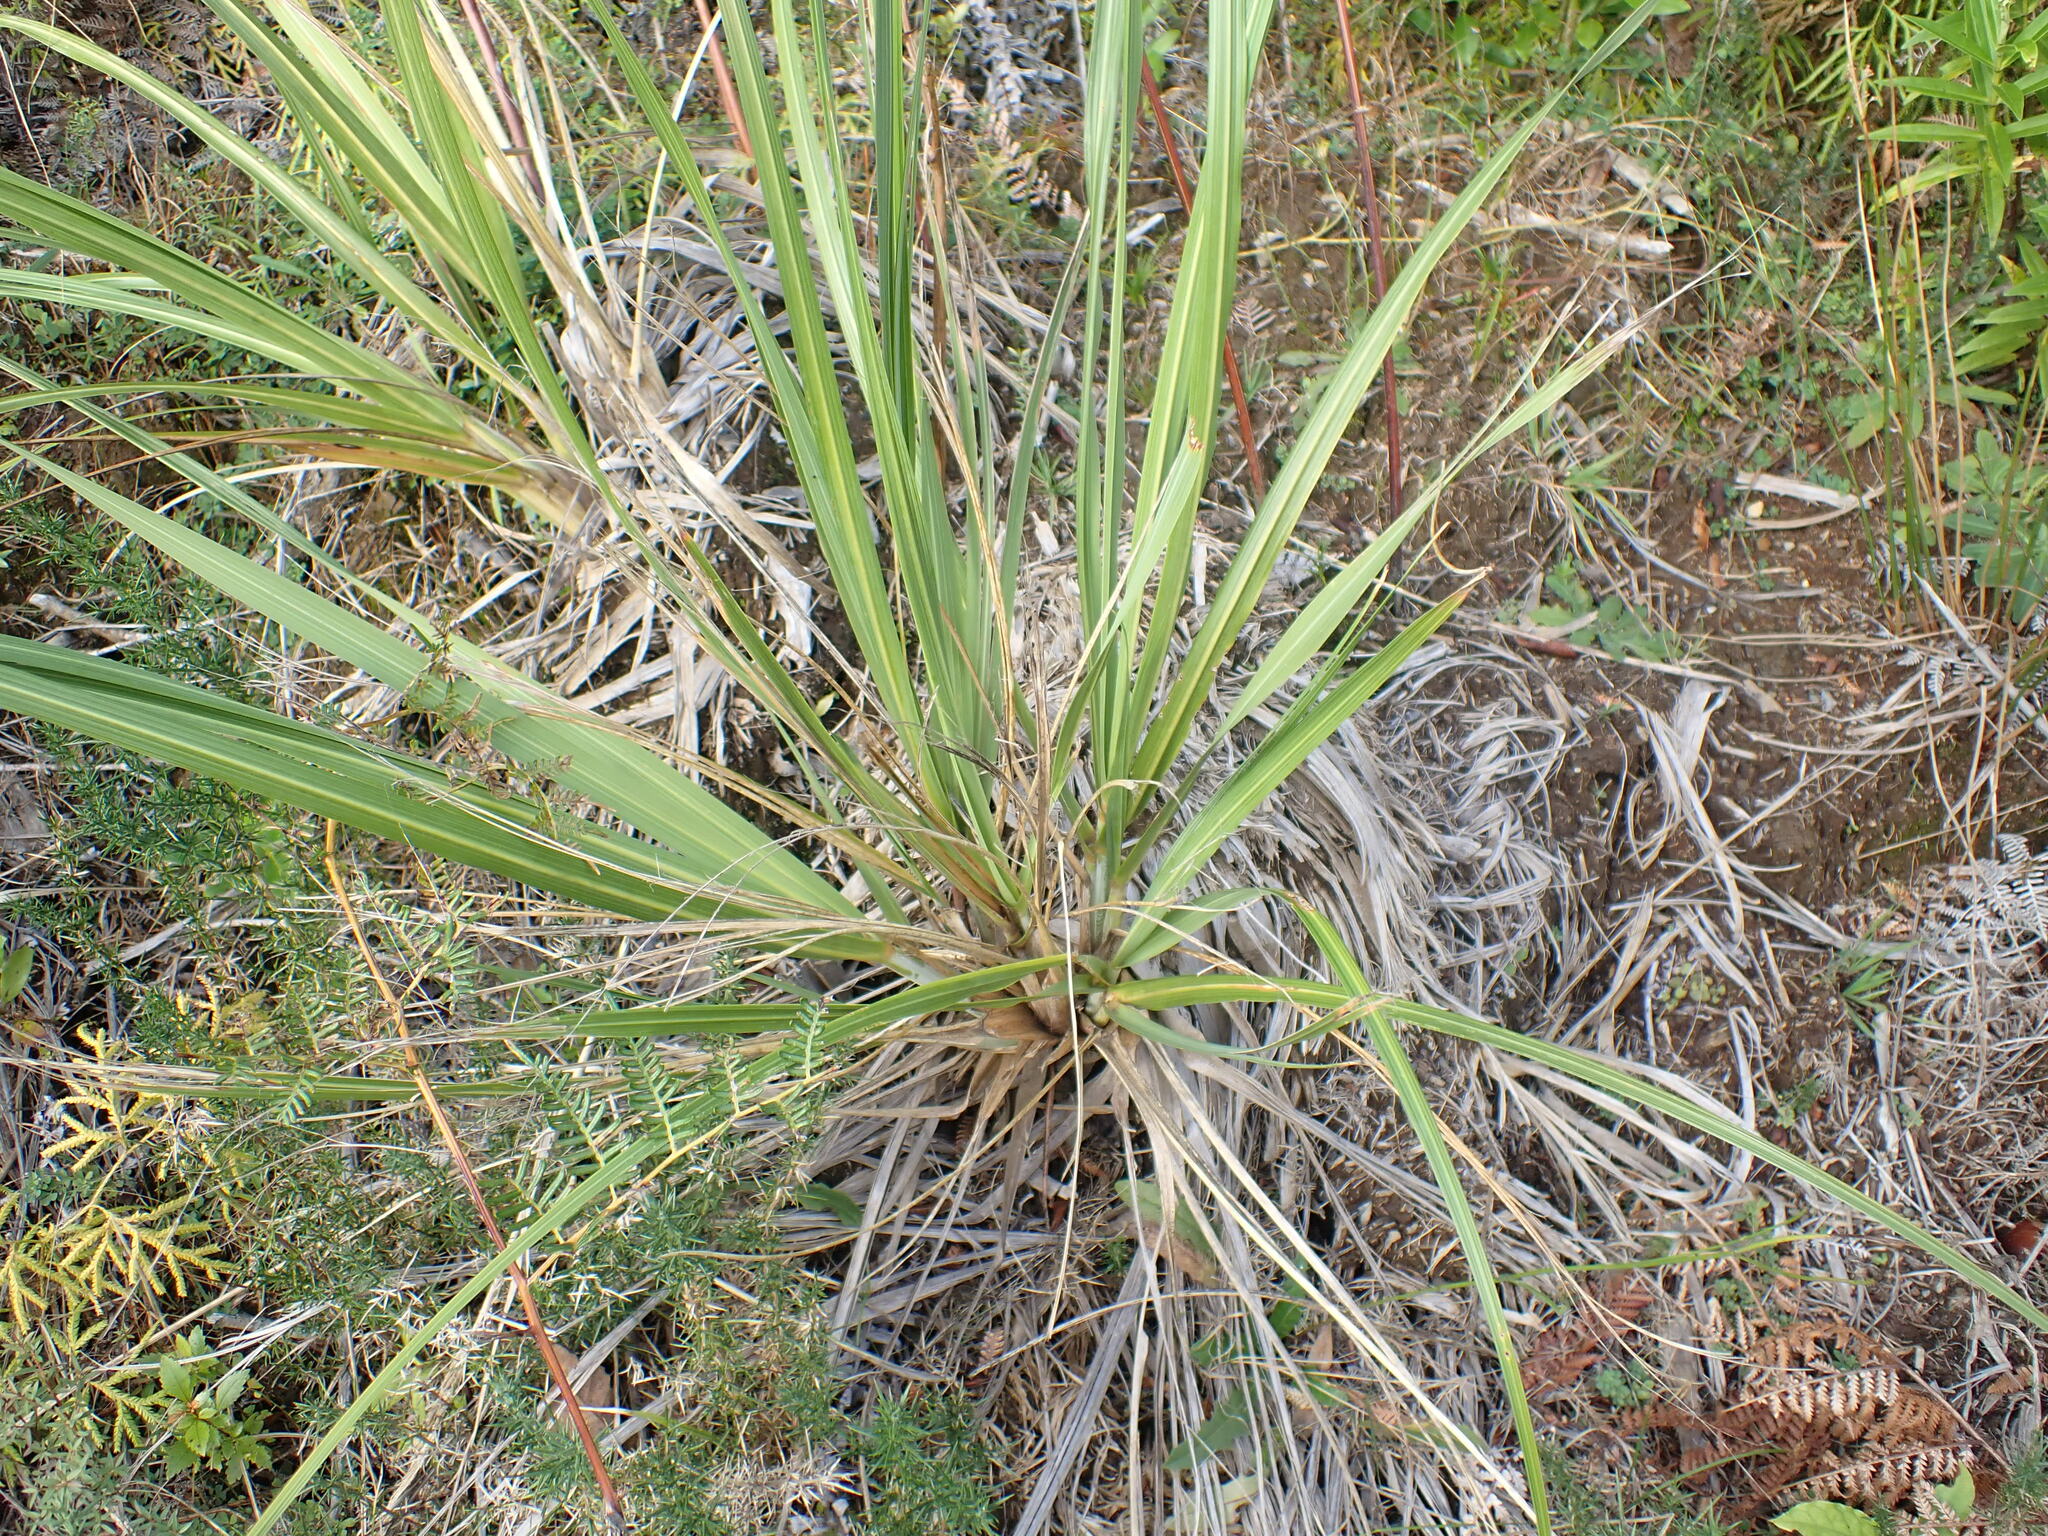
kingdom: Plantae
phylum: Tracheophyta
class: Liliopsida
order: Asparagales
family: Asteliaceae
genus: Astelia
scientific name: Astelia fragrans
